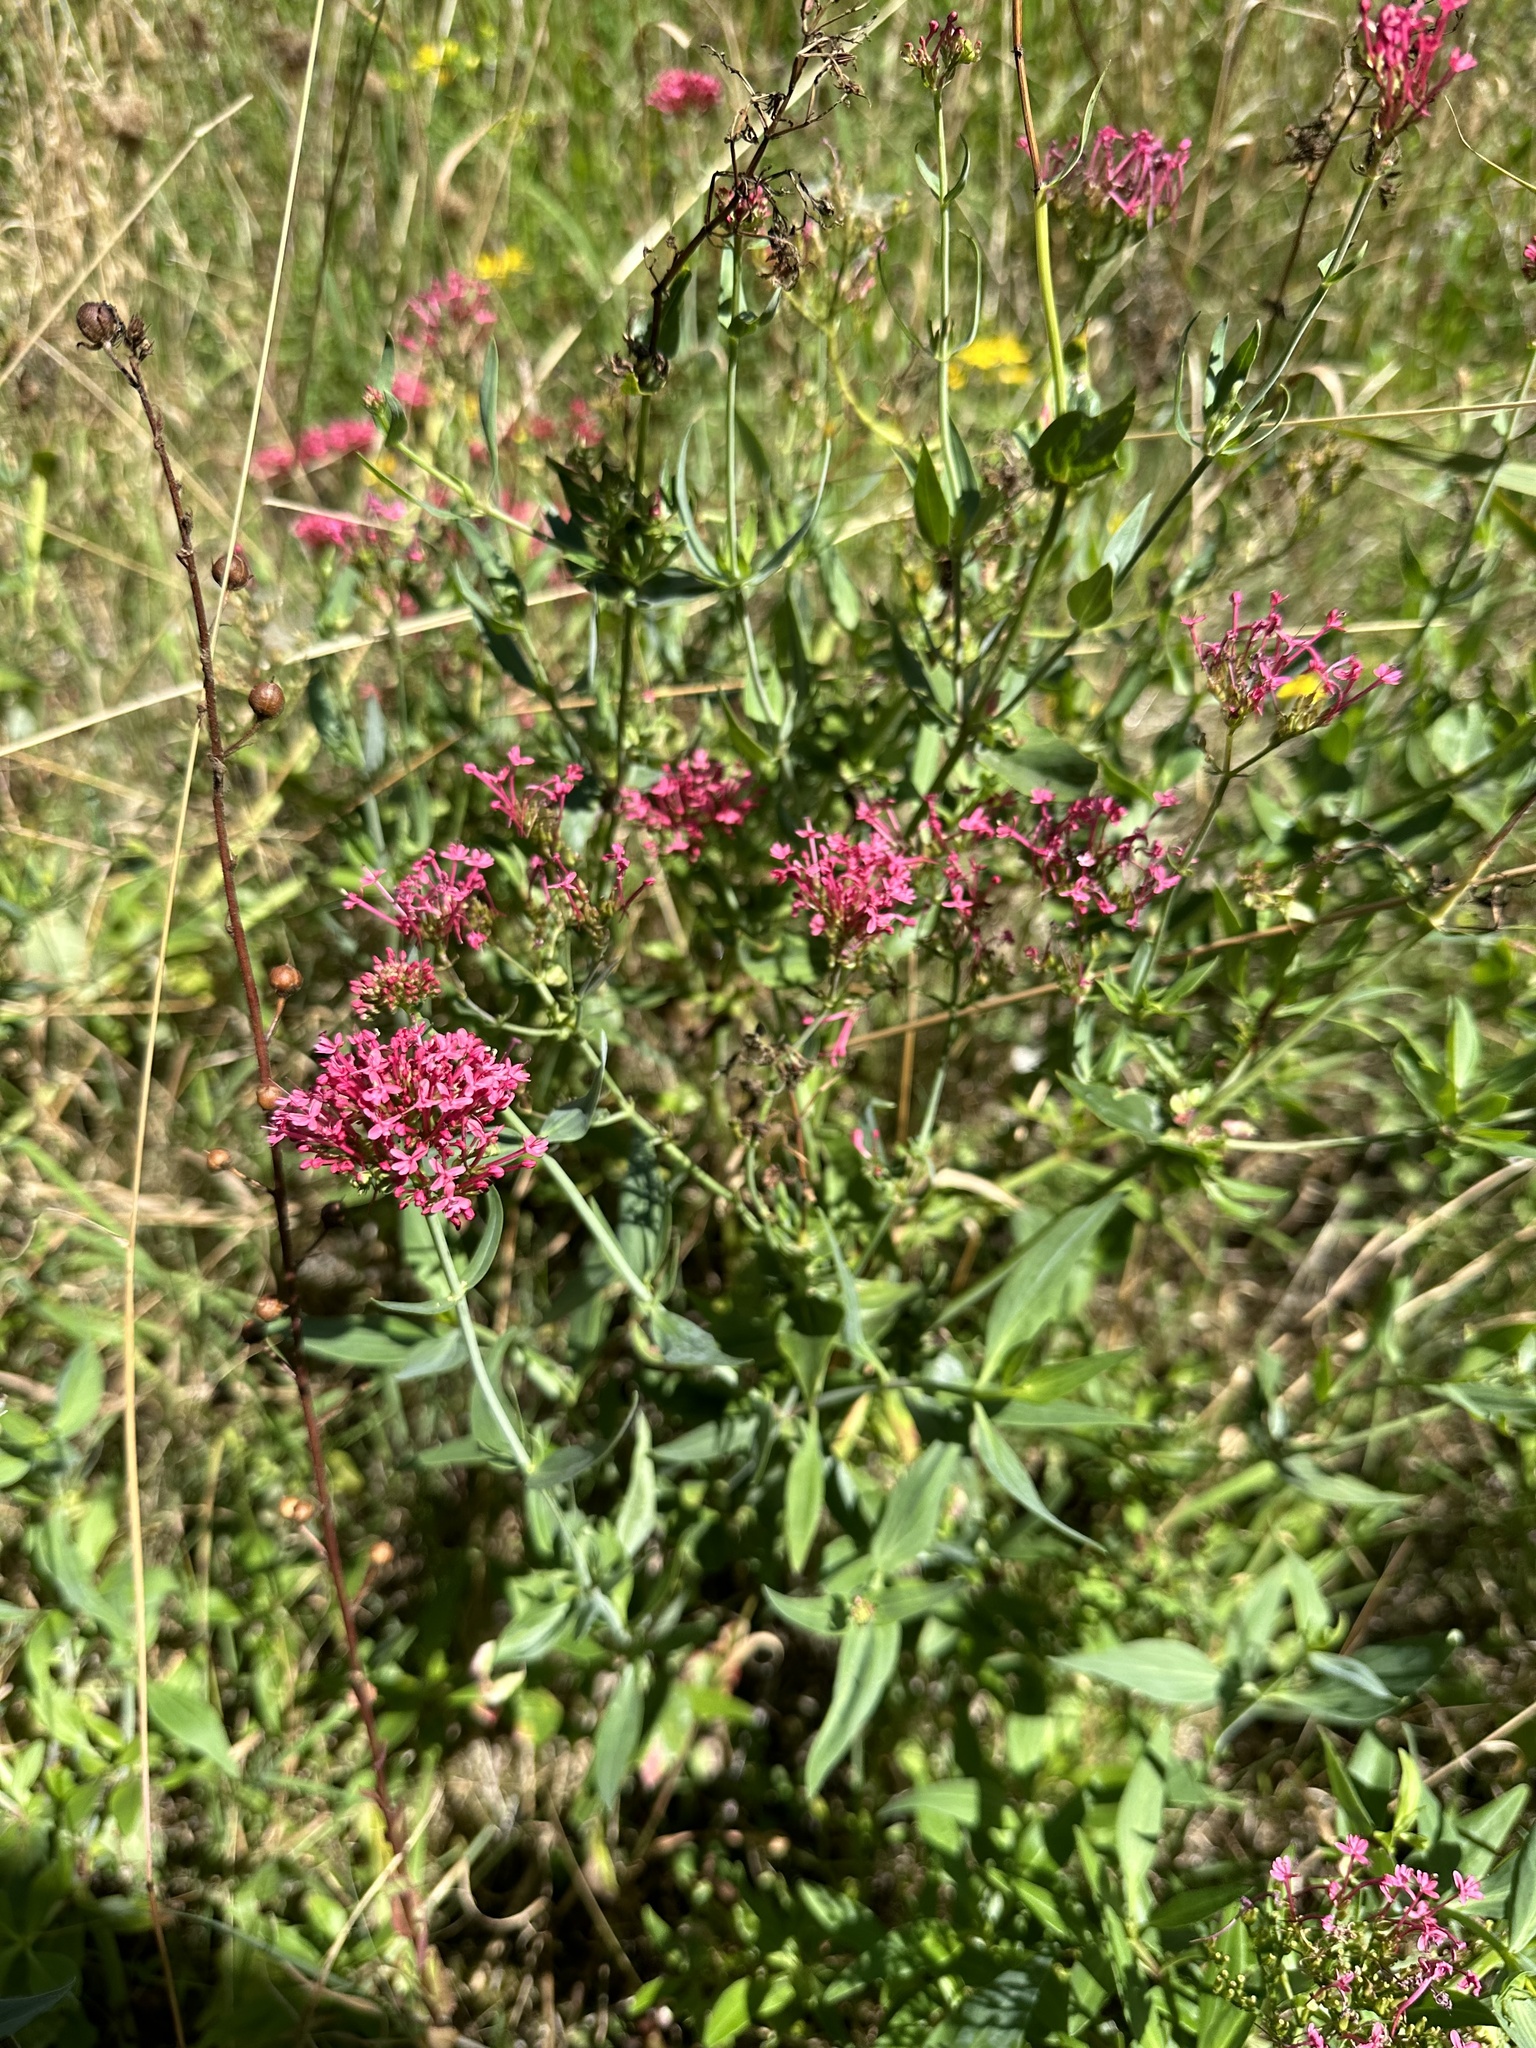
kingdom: Plantae
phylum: Tracheophyta
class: Magnoliopsida
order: Dipsacales
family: Caprifoliaceae
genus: Centranthus
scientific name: Centranthus ruber
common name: Red valerian
